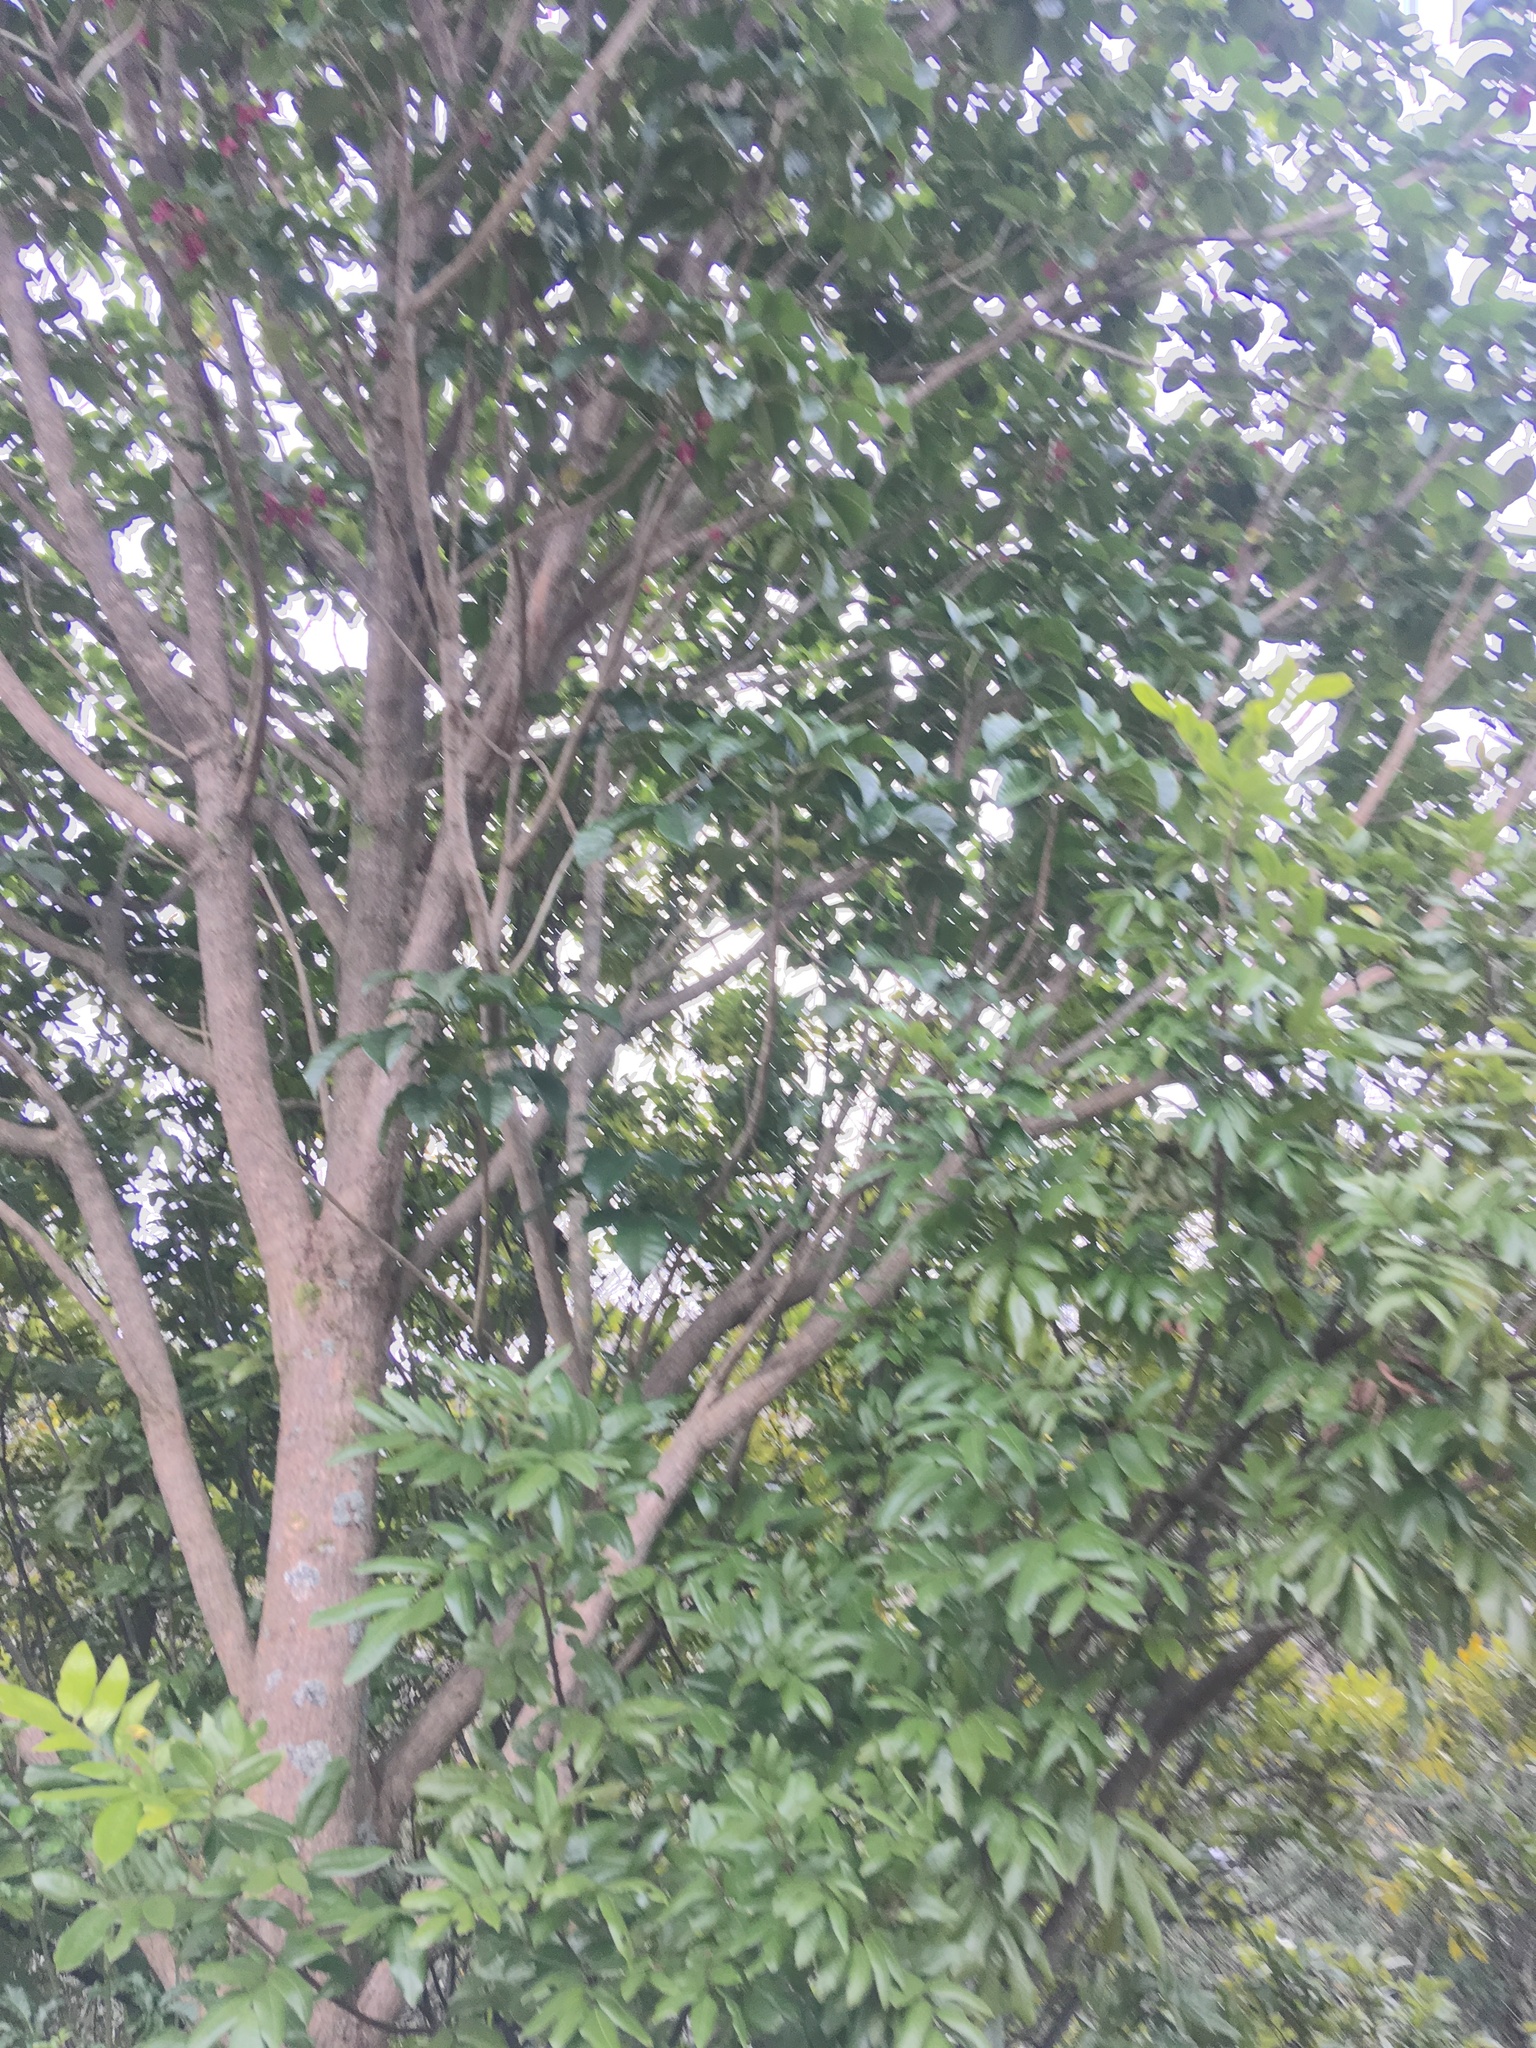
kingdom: Plantae
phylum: Tracheophyta
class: Magnoliopsida
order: Sapindales
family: Sapindaceae
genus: Alectryon
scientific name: Alectryon excelsus
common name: Three kings titoki
